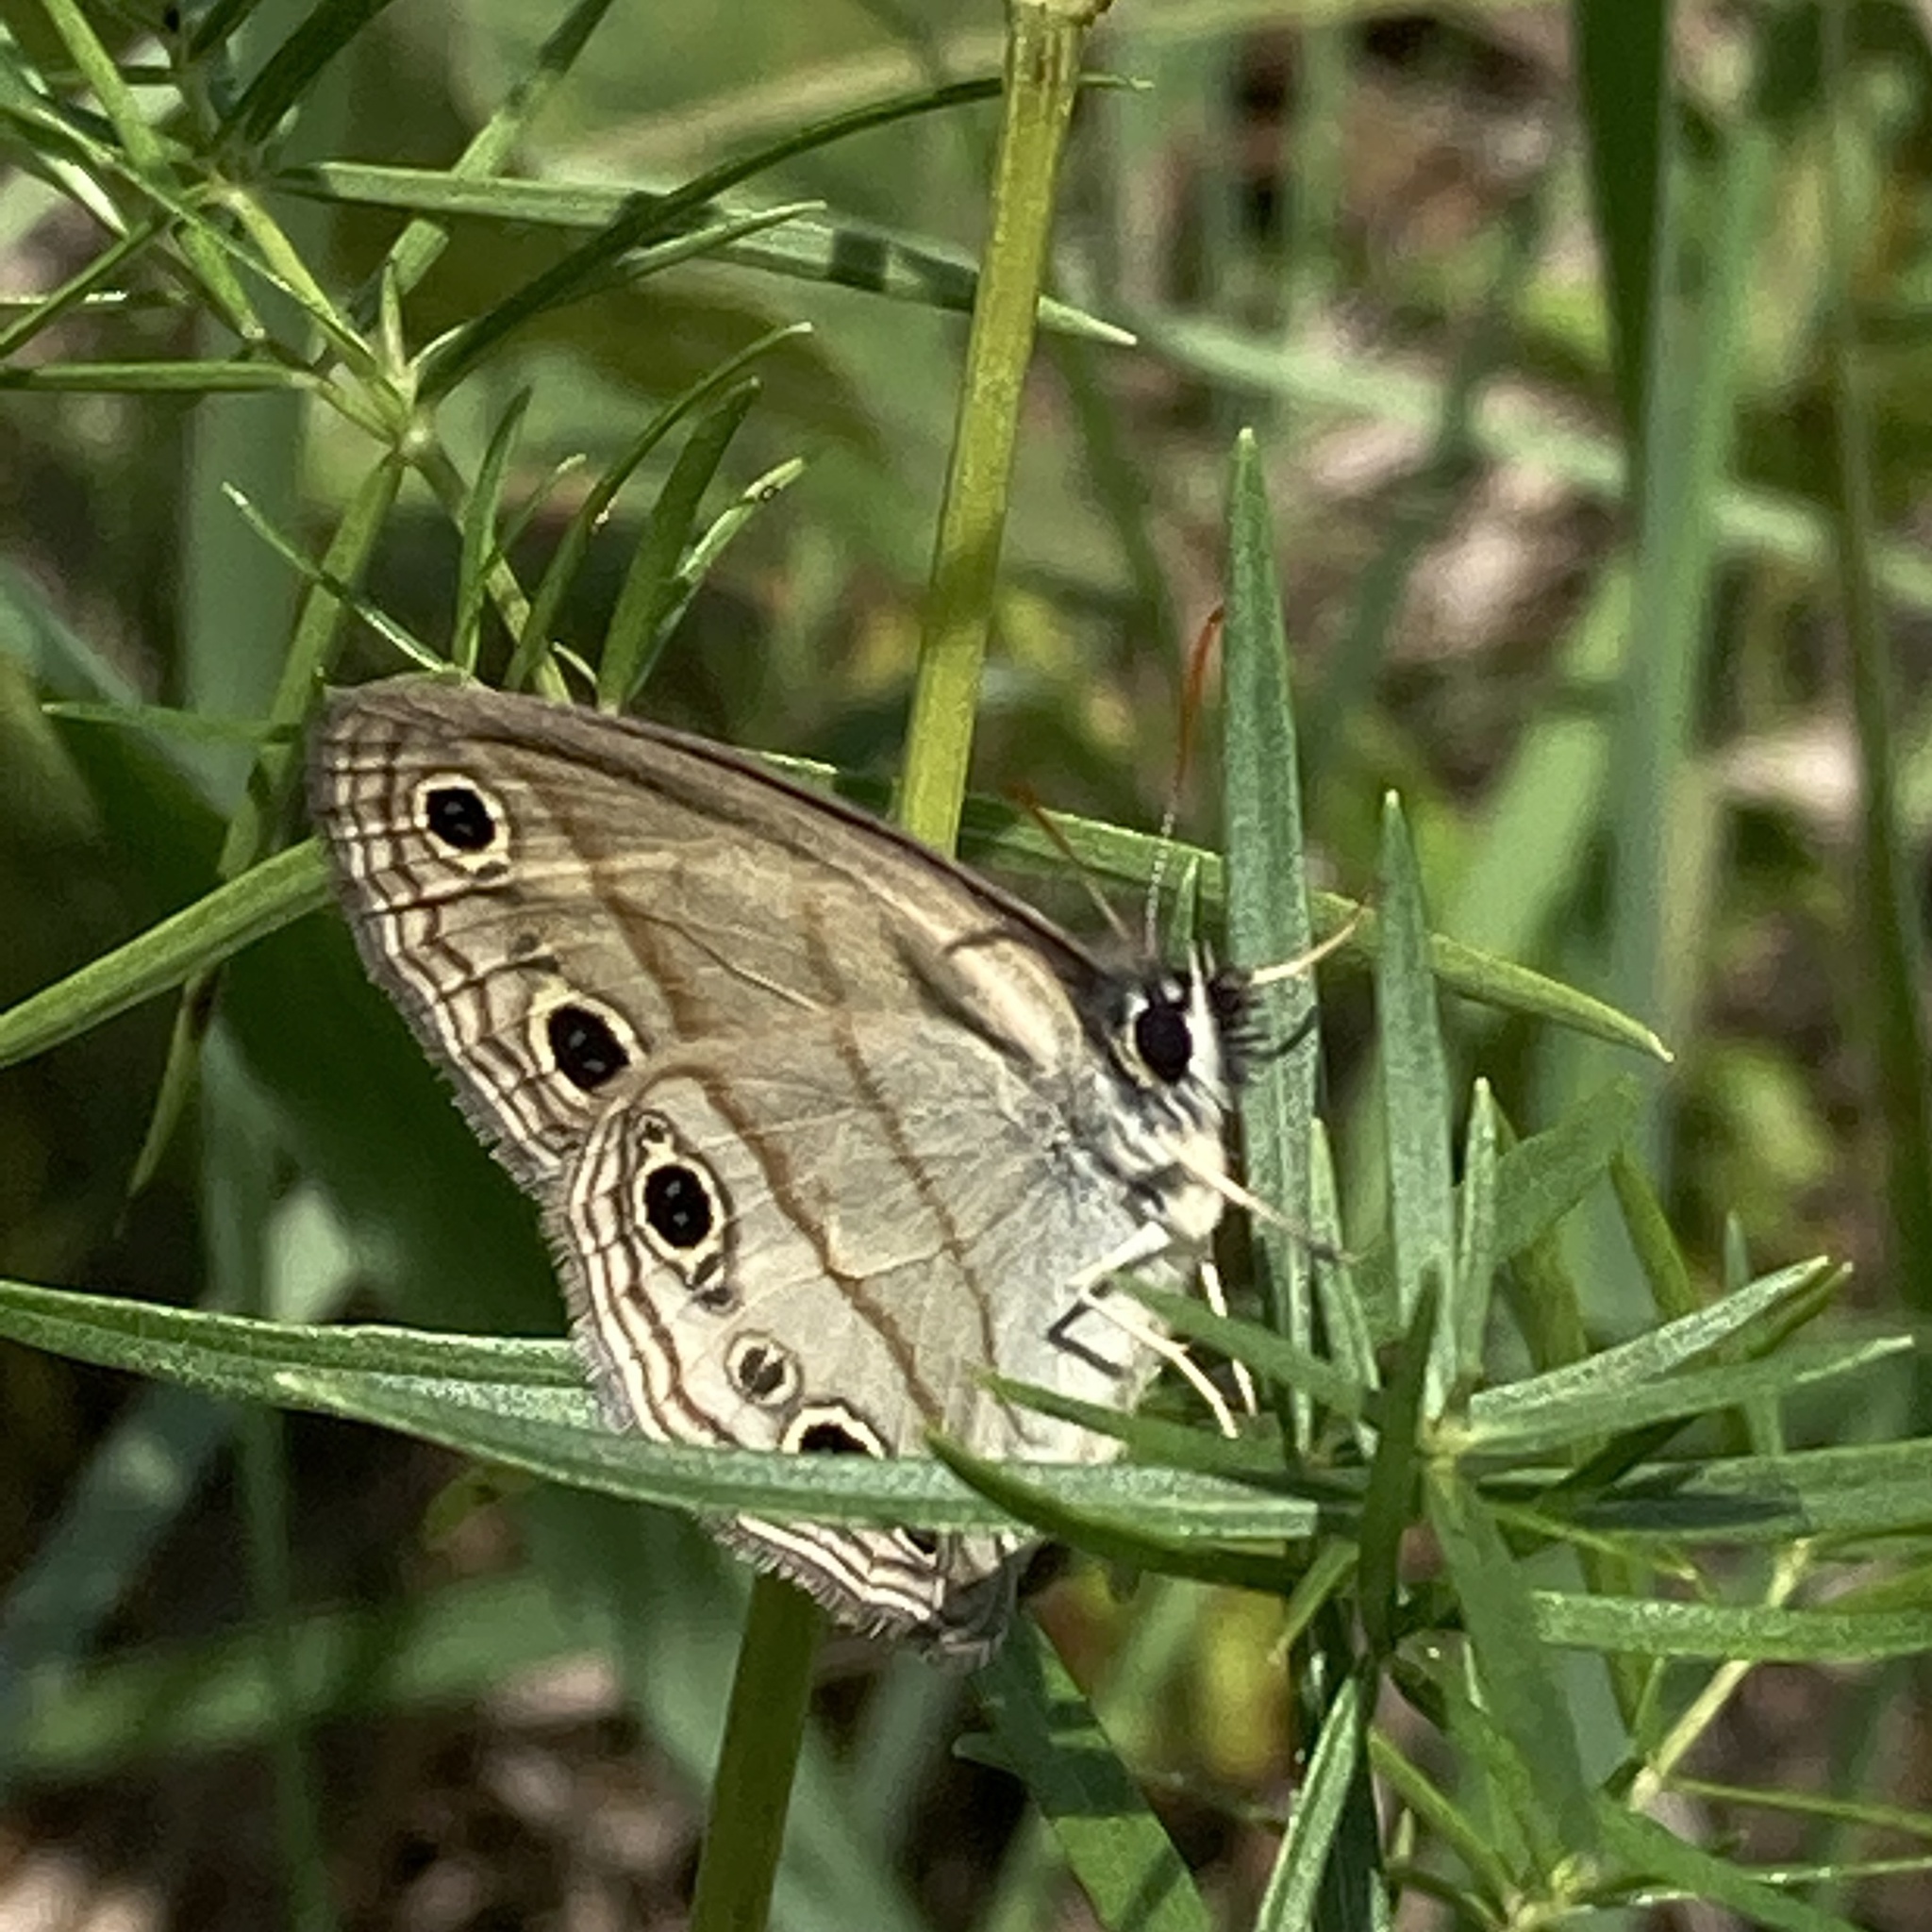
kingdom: Animalia
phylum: Arthropoda
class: Insecta
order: Lepidoptera
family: Nymphalidae
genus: Euptychia
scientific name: Euptychia cymela
